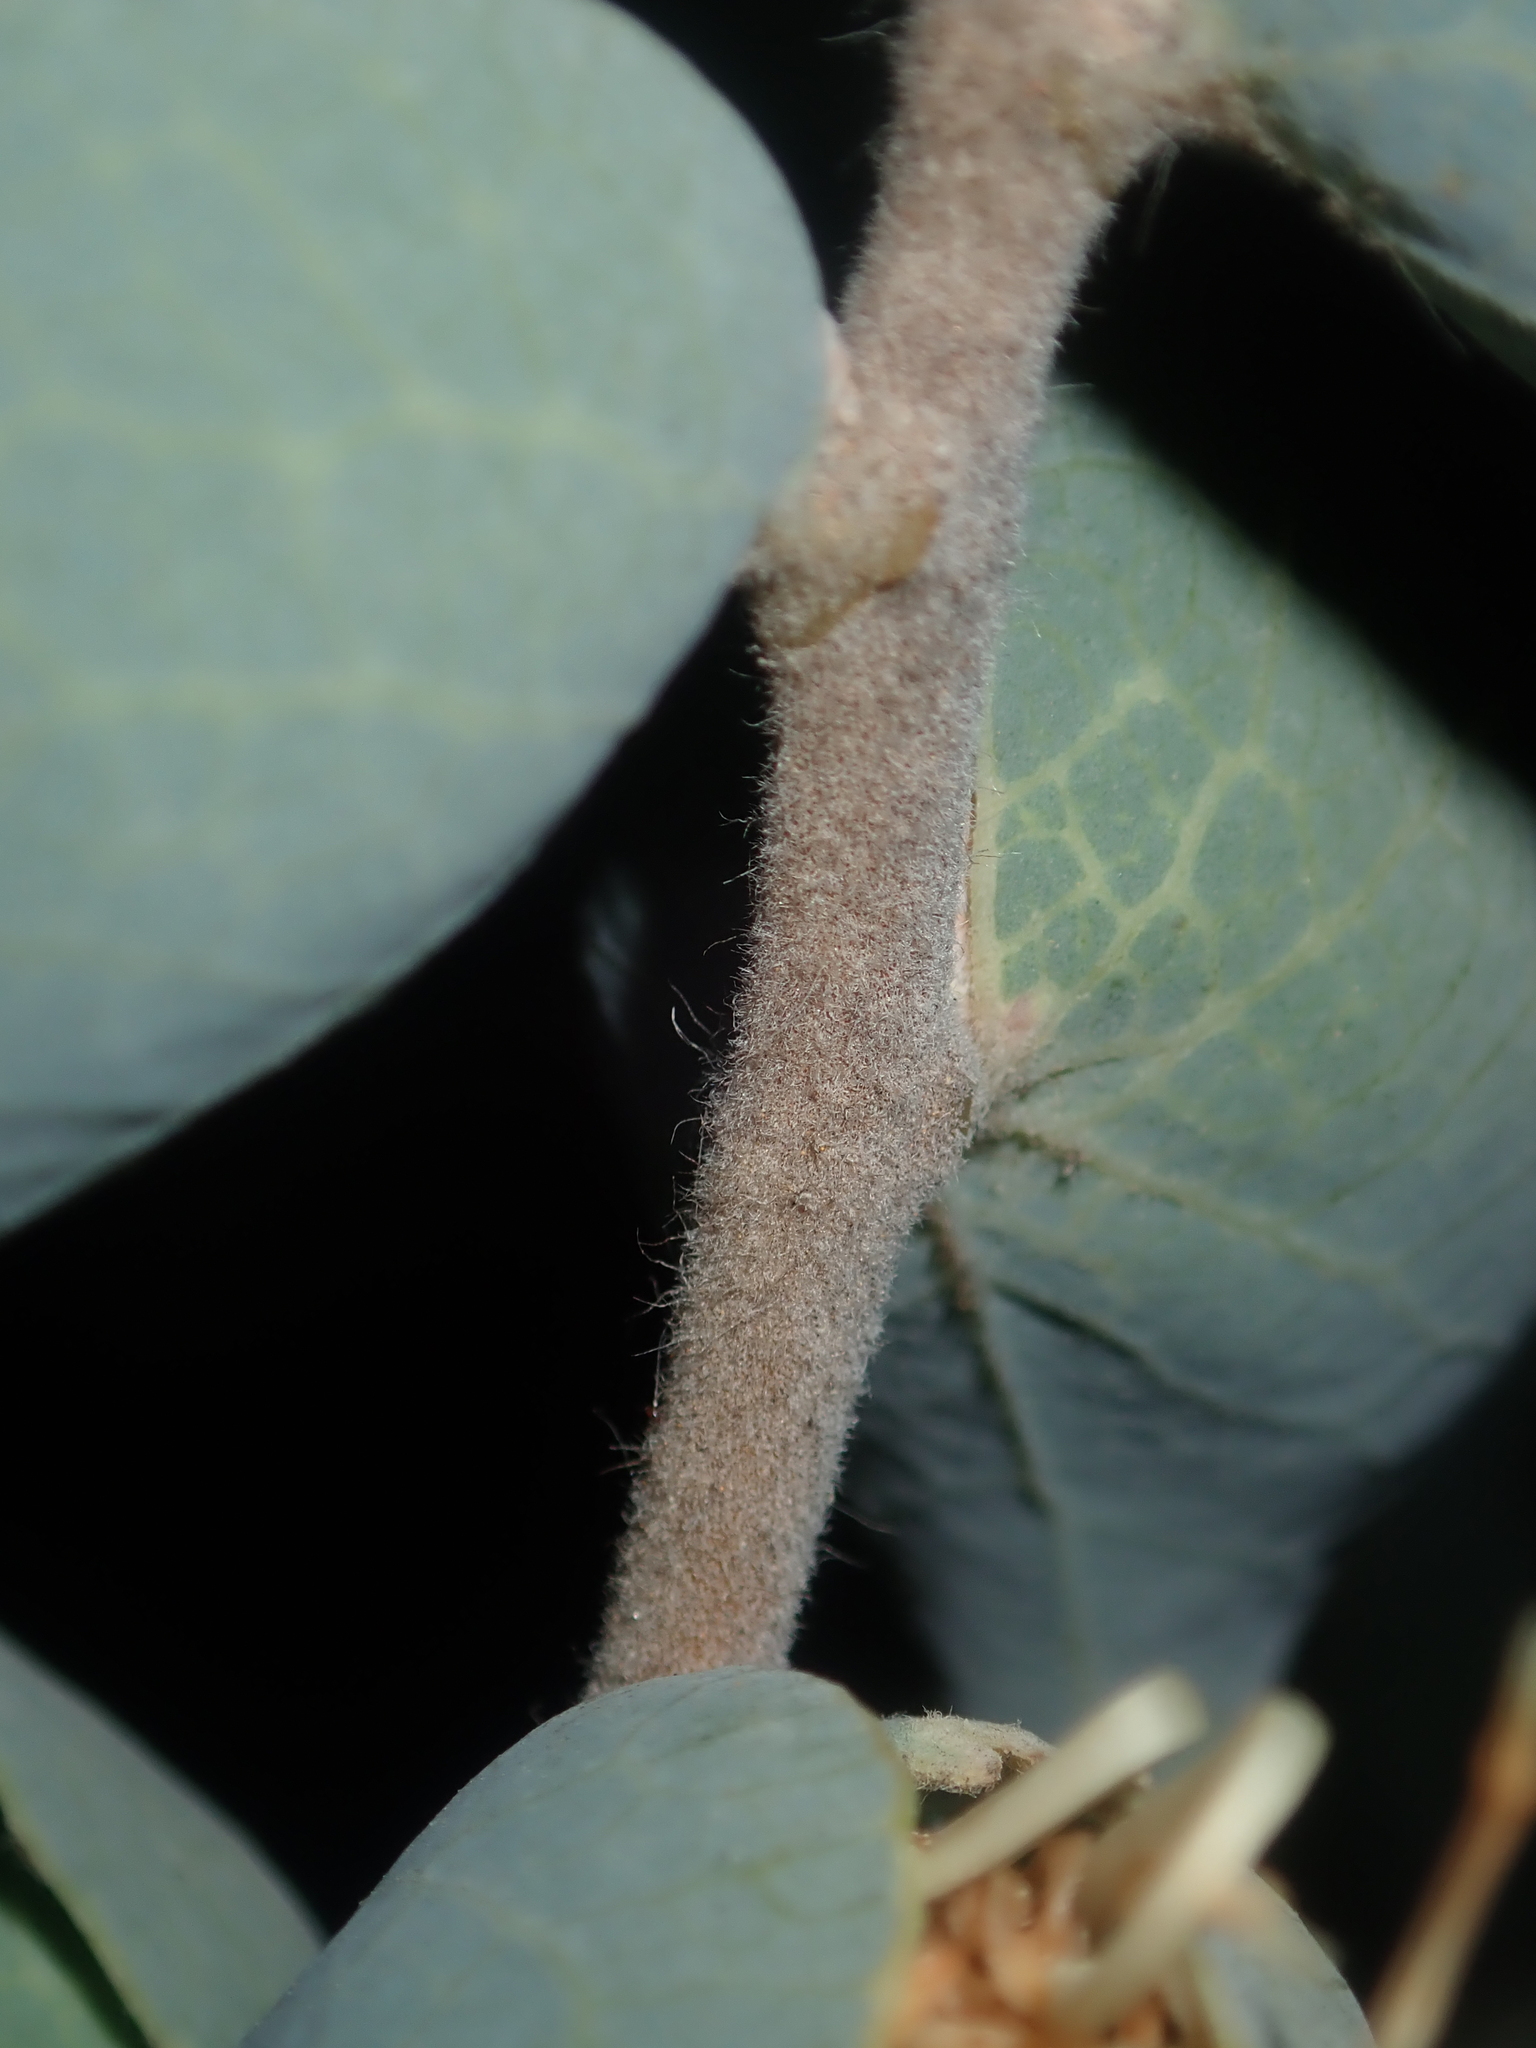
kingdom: Plantae
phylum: Tracheophyta
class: Magnoliopsida
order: Proteales
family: Proteaceae
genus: Hakea
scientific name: Hakea conchifolia
